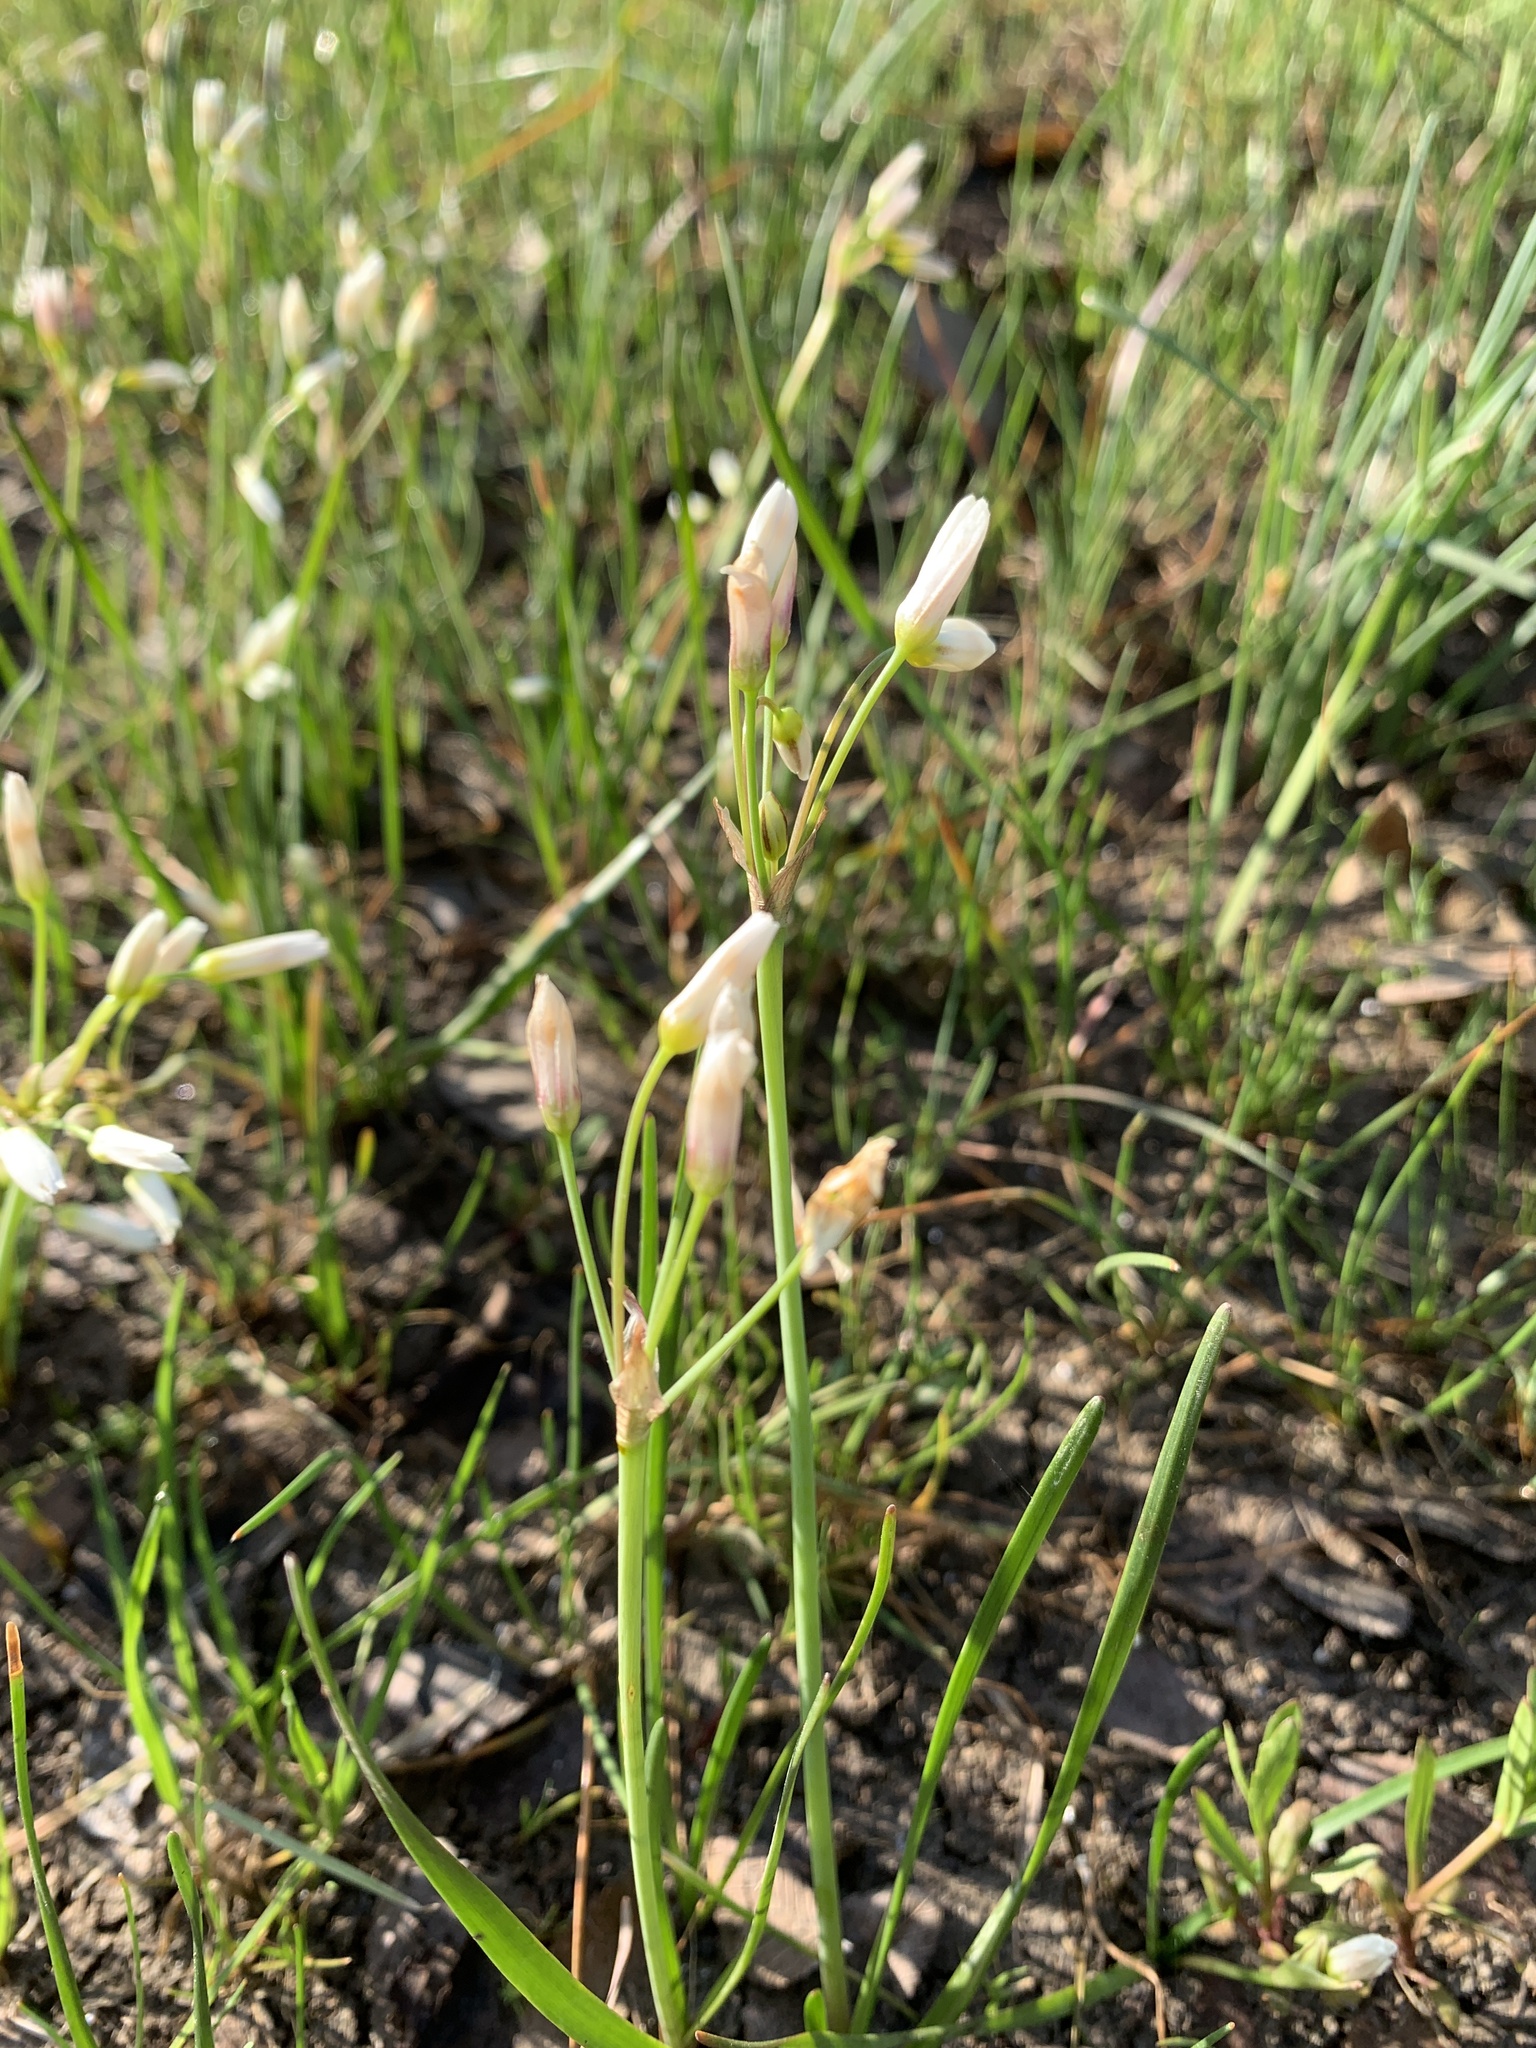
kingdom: Plantae
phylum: Tracheophyta
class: Liliopsida
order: Asparagales
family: Amaryllidaceae
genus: Nothoscordum
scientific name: Nothoscordum bivalve
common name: Crow-poison
